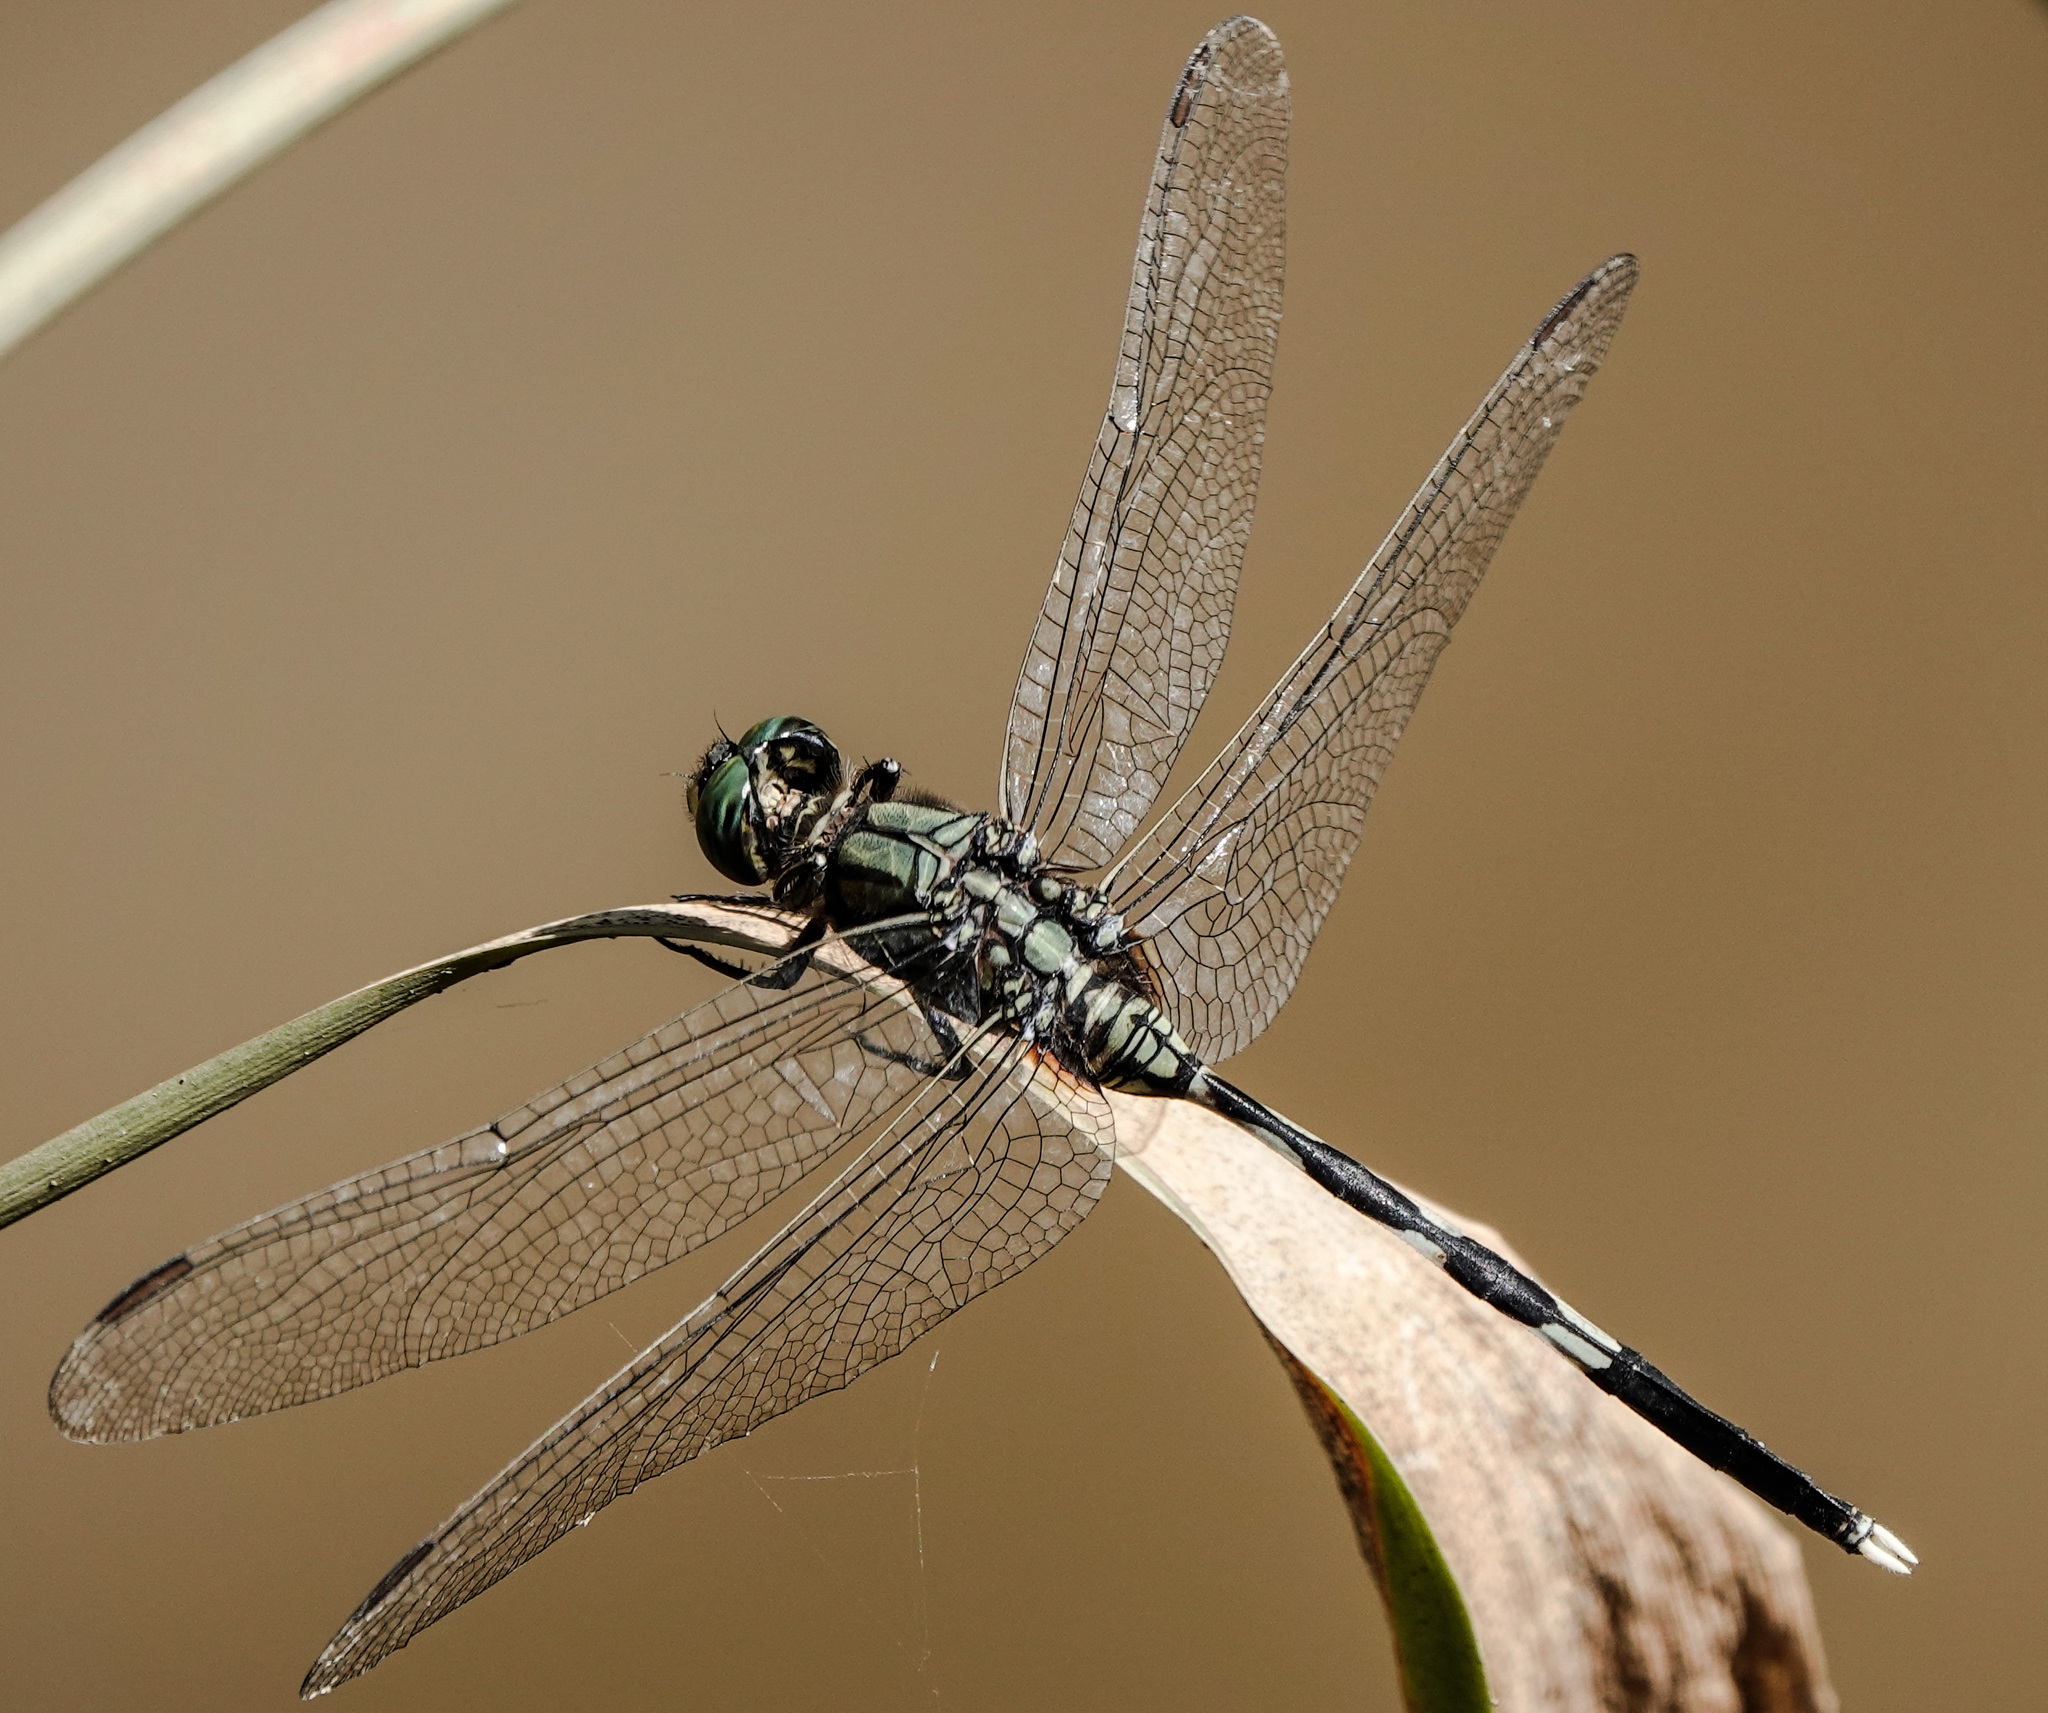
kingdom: Animalia
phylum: Arthropoda
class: Insecta
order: Odonata
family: Libellulidae
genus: Orthetrum
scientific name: Orthetrum sabina
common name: Slender skimmer
